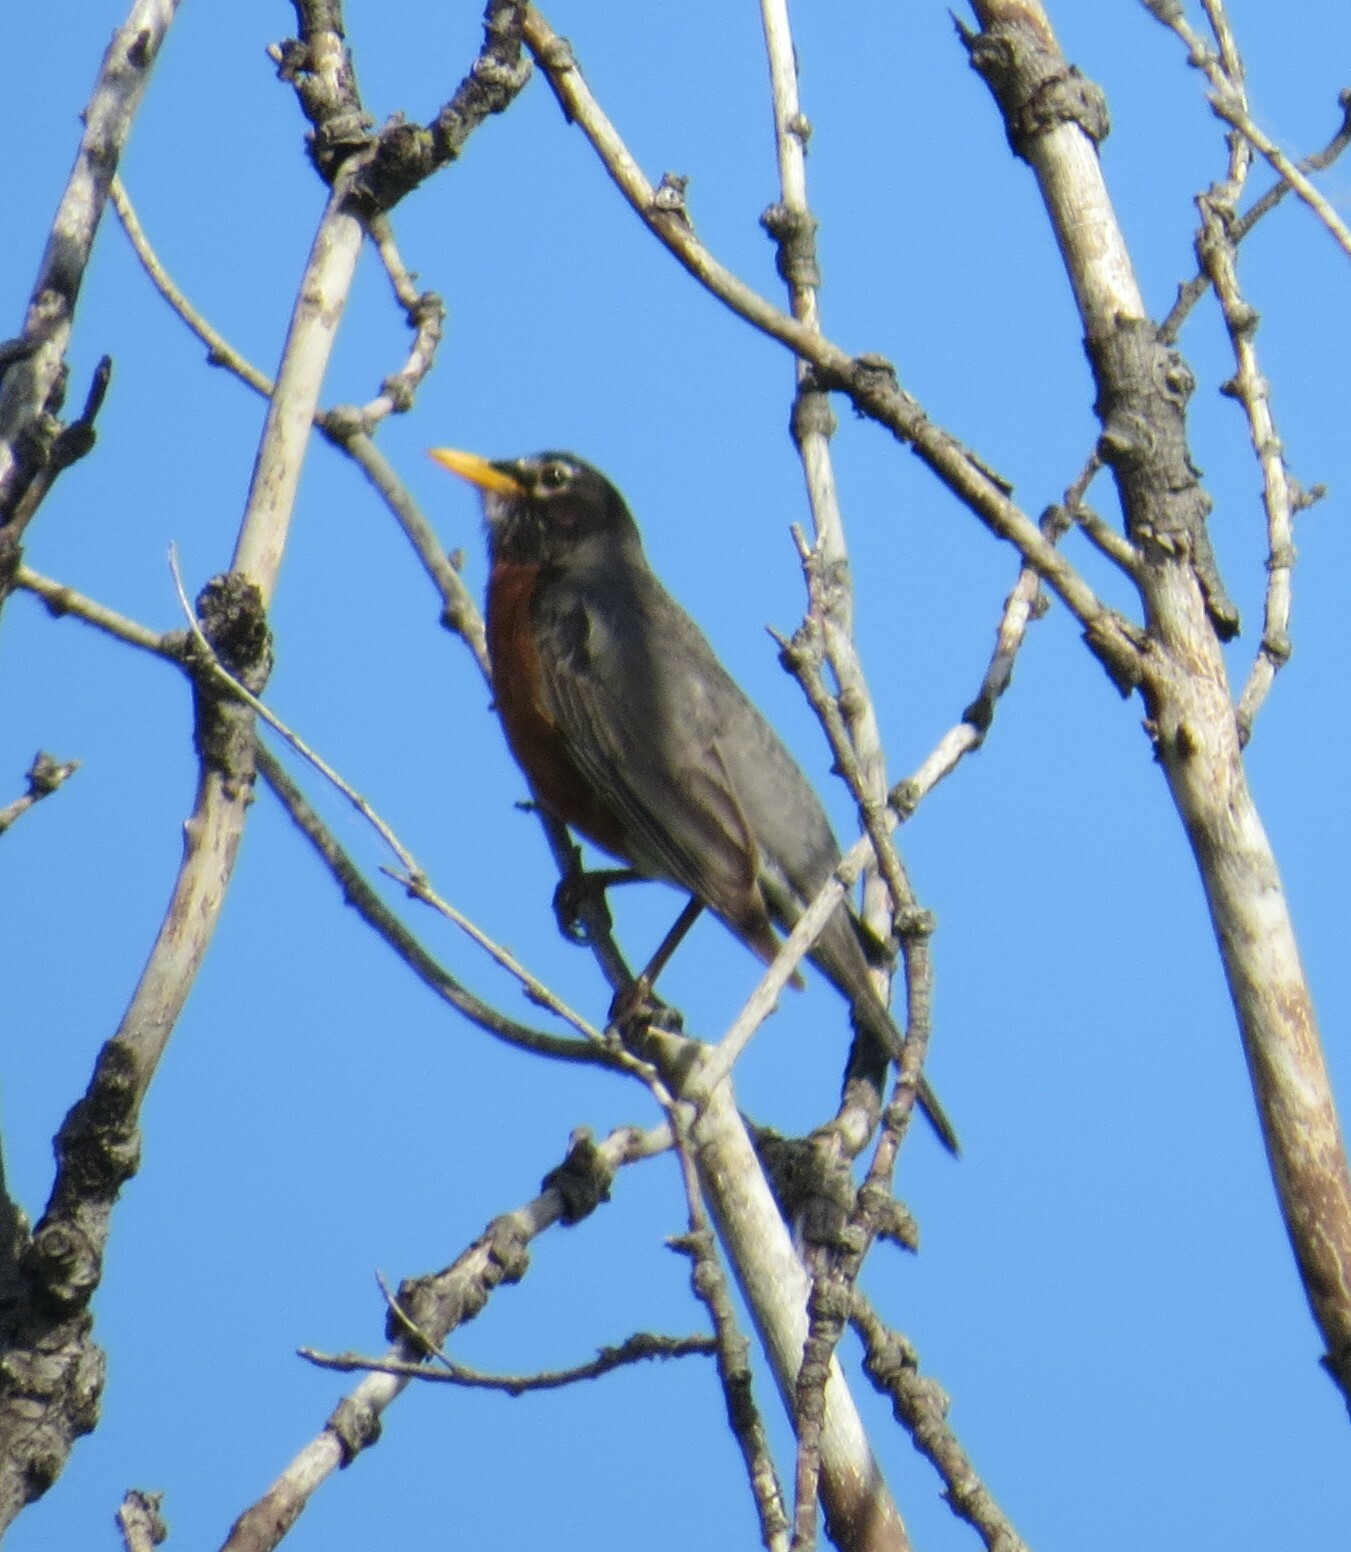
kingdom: Animalia
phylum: Chordata
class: Aves
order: Passeriformes
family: Turdidae
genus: Turdus
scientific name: Turdus migratorius
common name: American robin
